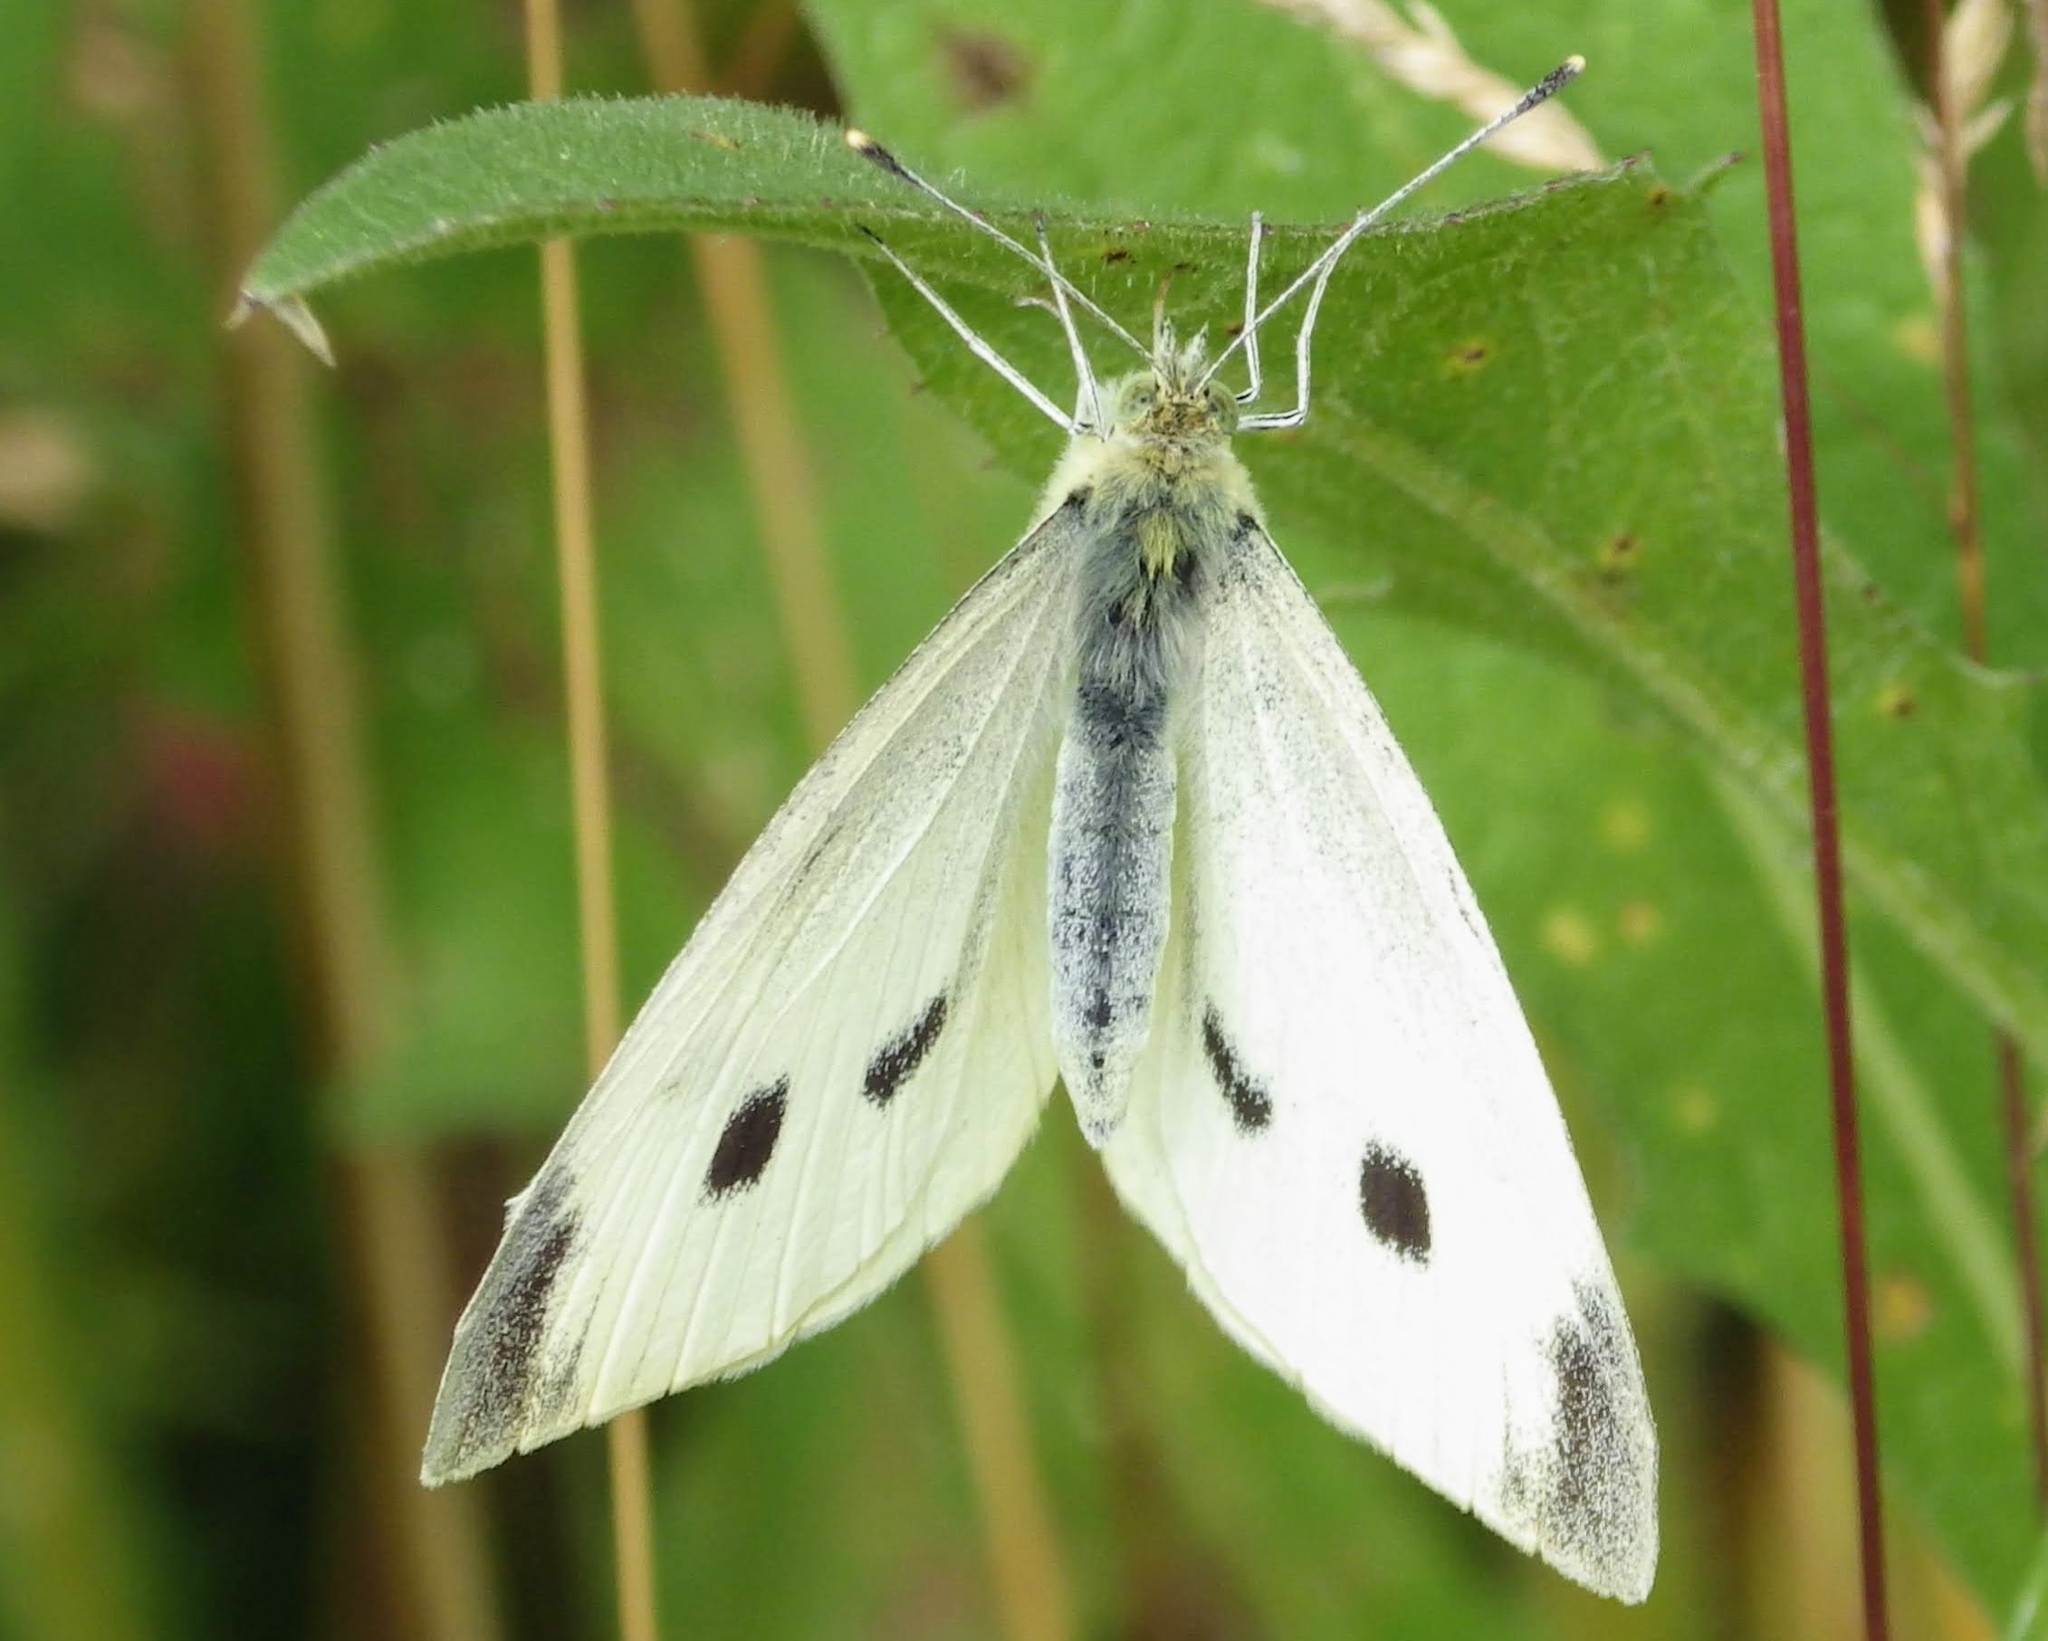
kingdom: Animalia
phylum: Arthropoda
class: Insecta
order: Lepidoptera
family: Pieridae
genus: Pieris
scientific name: Pieris rapae
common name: Small white
